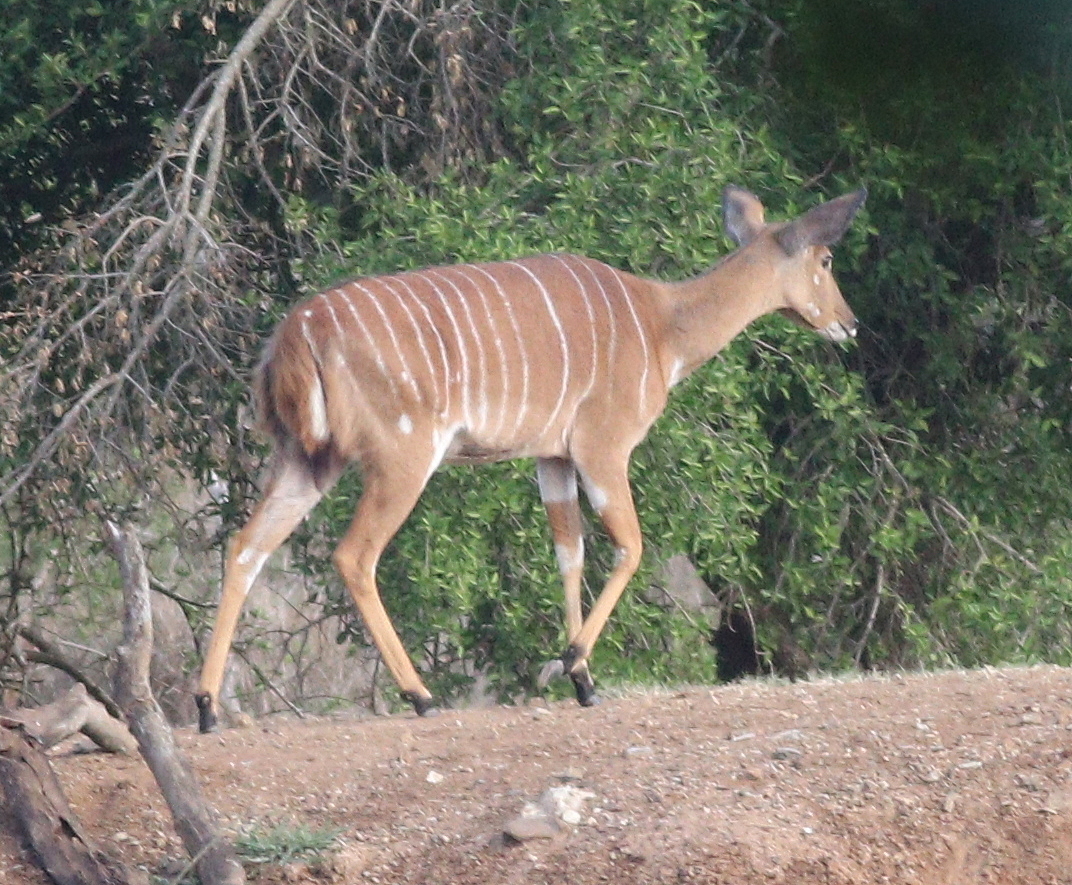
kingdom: Animalia
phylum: Chordata
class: Mammalia
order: Artiodactyla
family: Bovidae
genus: Tragelaphus
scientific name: Tragelaphus angasii
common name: Nyala
